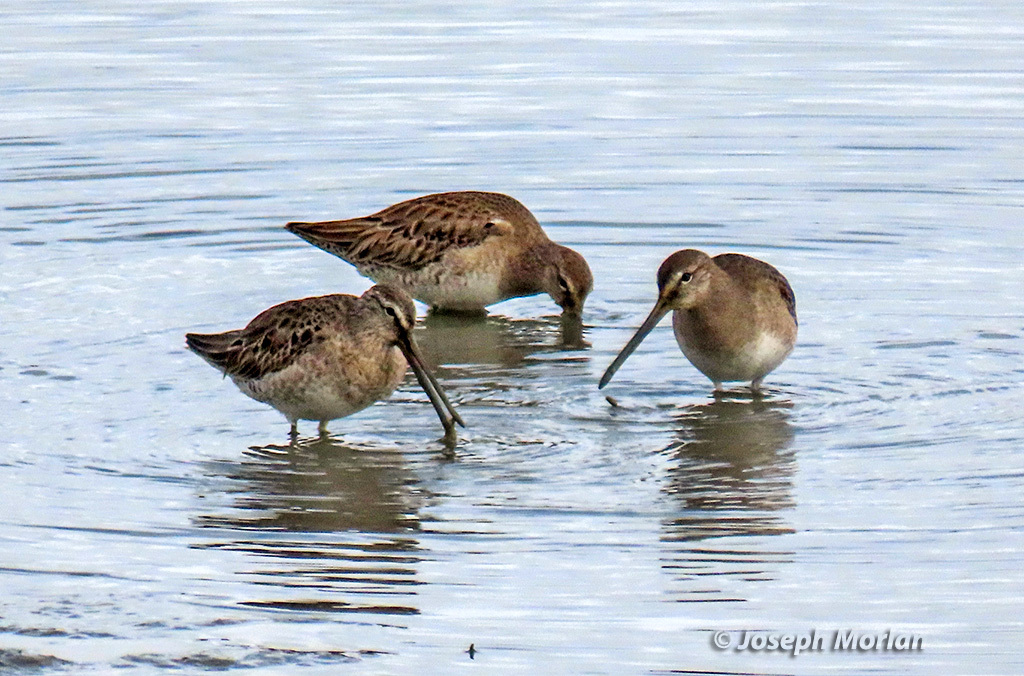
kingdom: Animalia
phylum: Chordata
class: Aves
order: Charadriiformes
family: Scolopacidae
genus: Limnodromus
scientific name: Limnodromus scolopaceus
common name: Long-billed dowitcher
